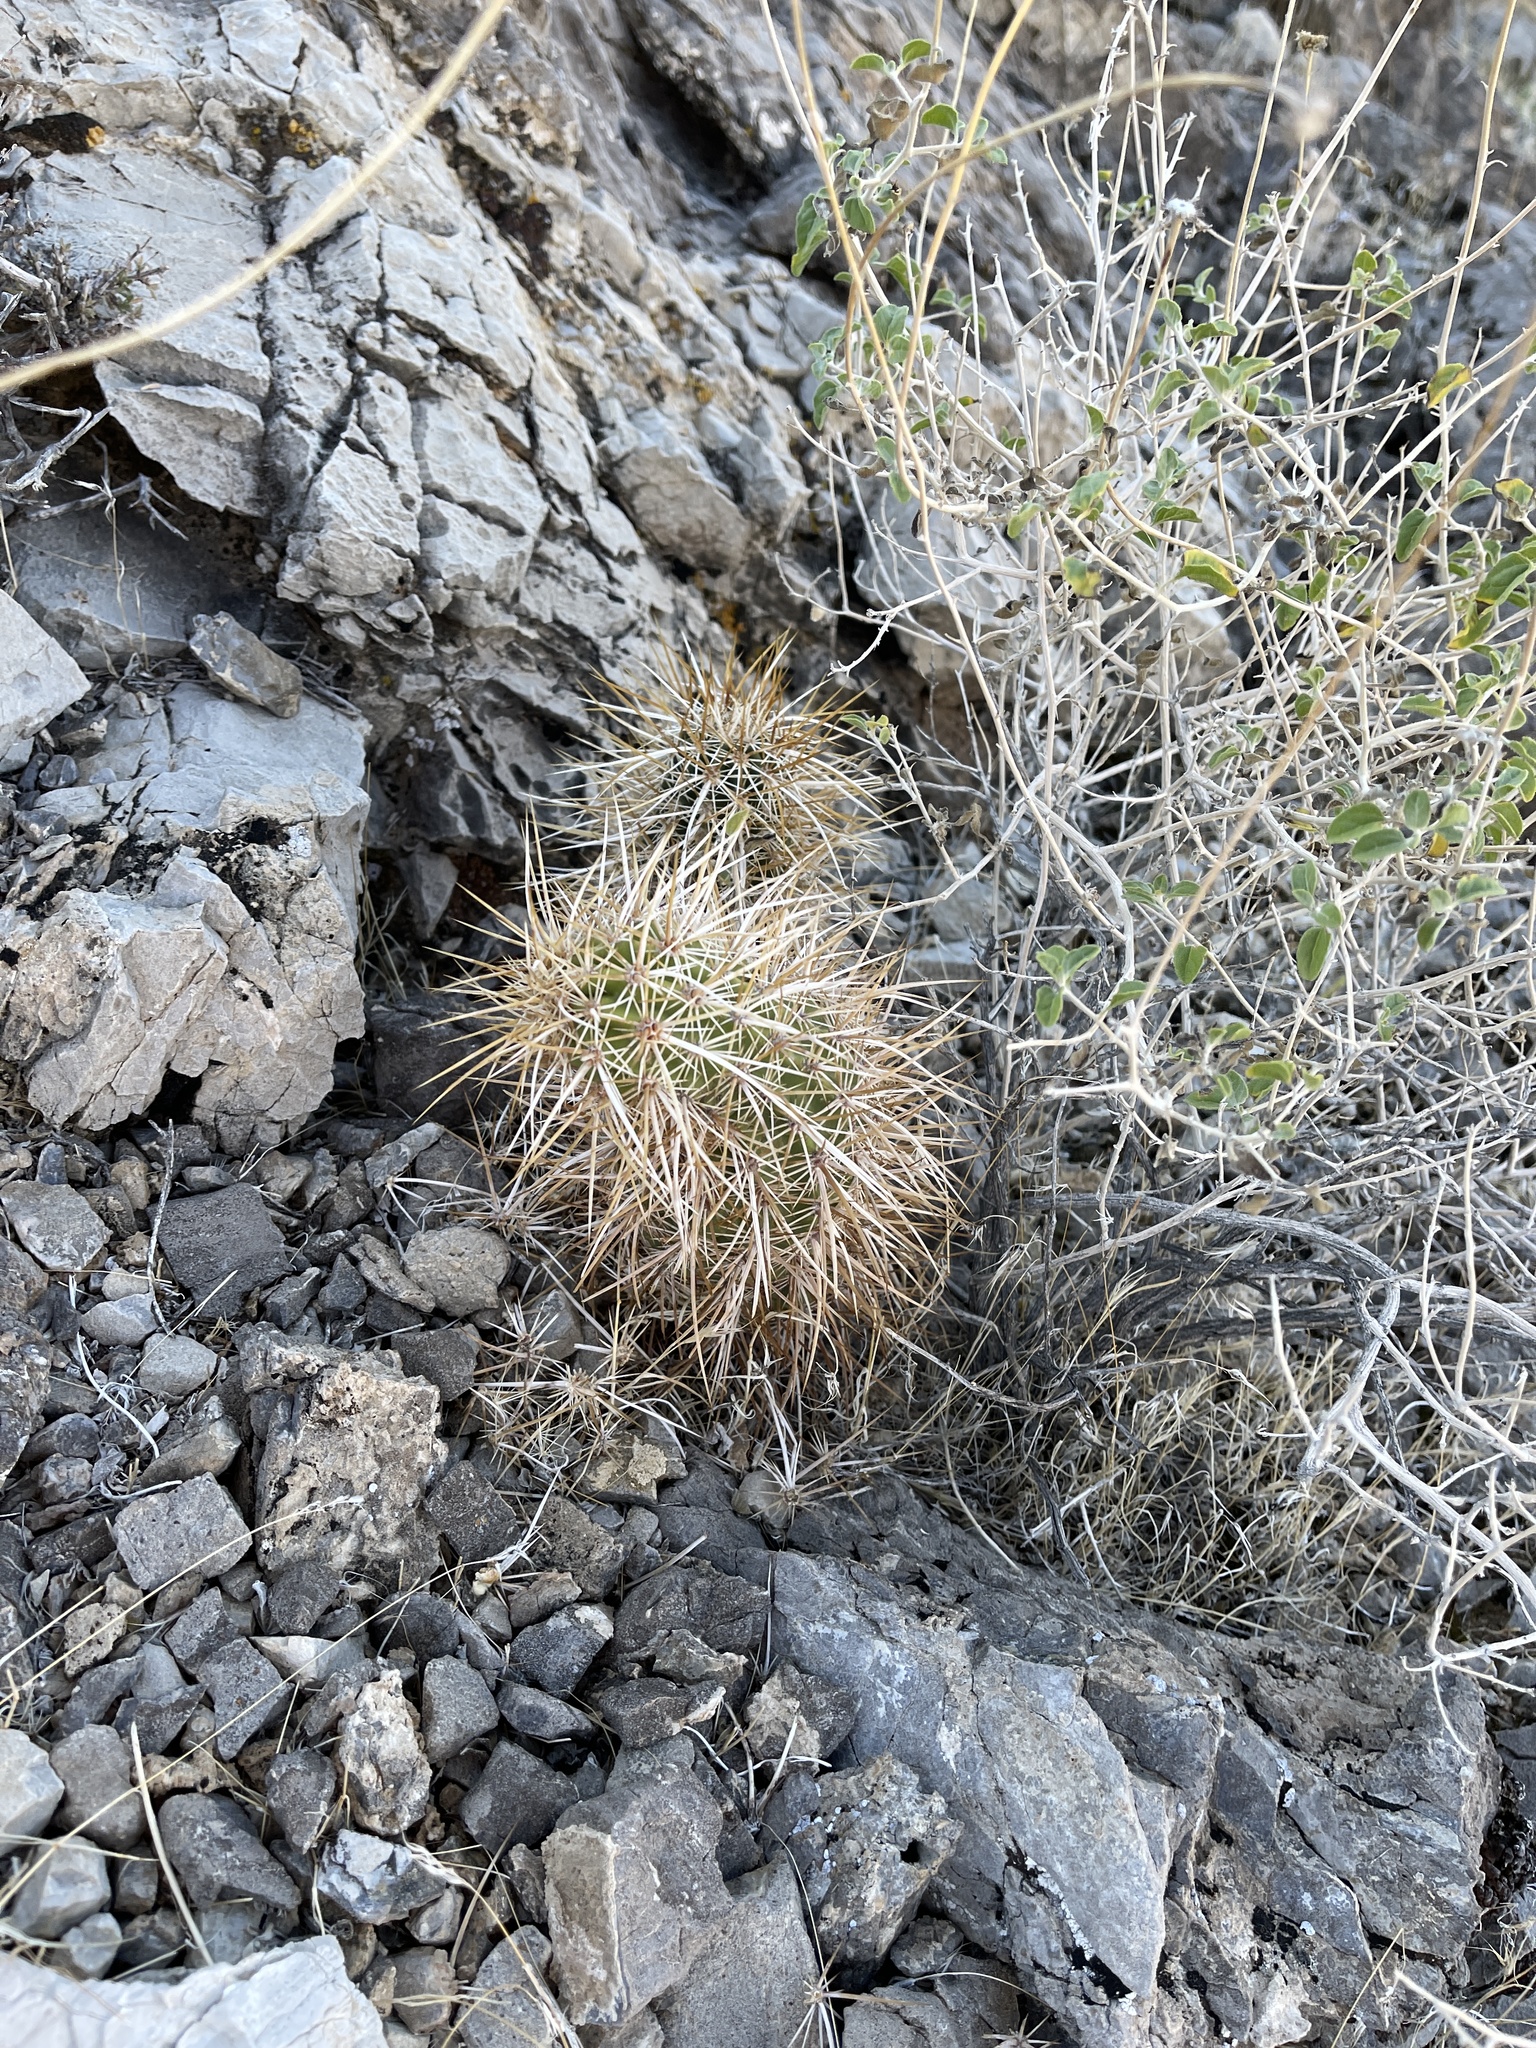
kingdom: Plantae
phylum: Tracheophyta
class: Magnoliopsida
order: Caryophyllales
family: Cactaceae
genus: Echinocereus
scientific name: Echinocereus engelmannii
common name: Engelmann's hedgehog cactus
